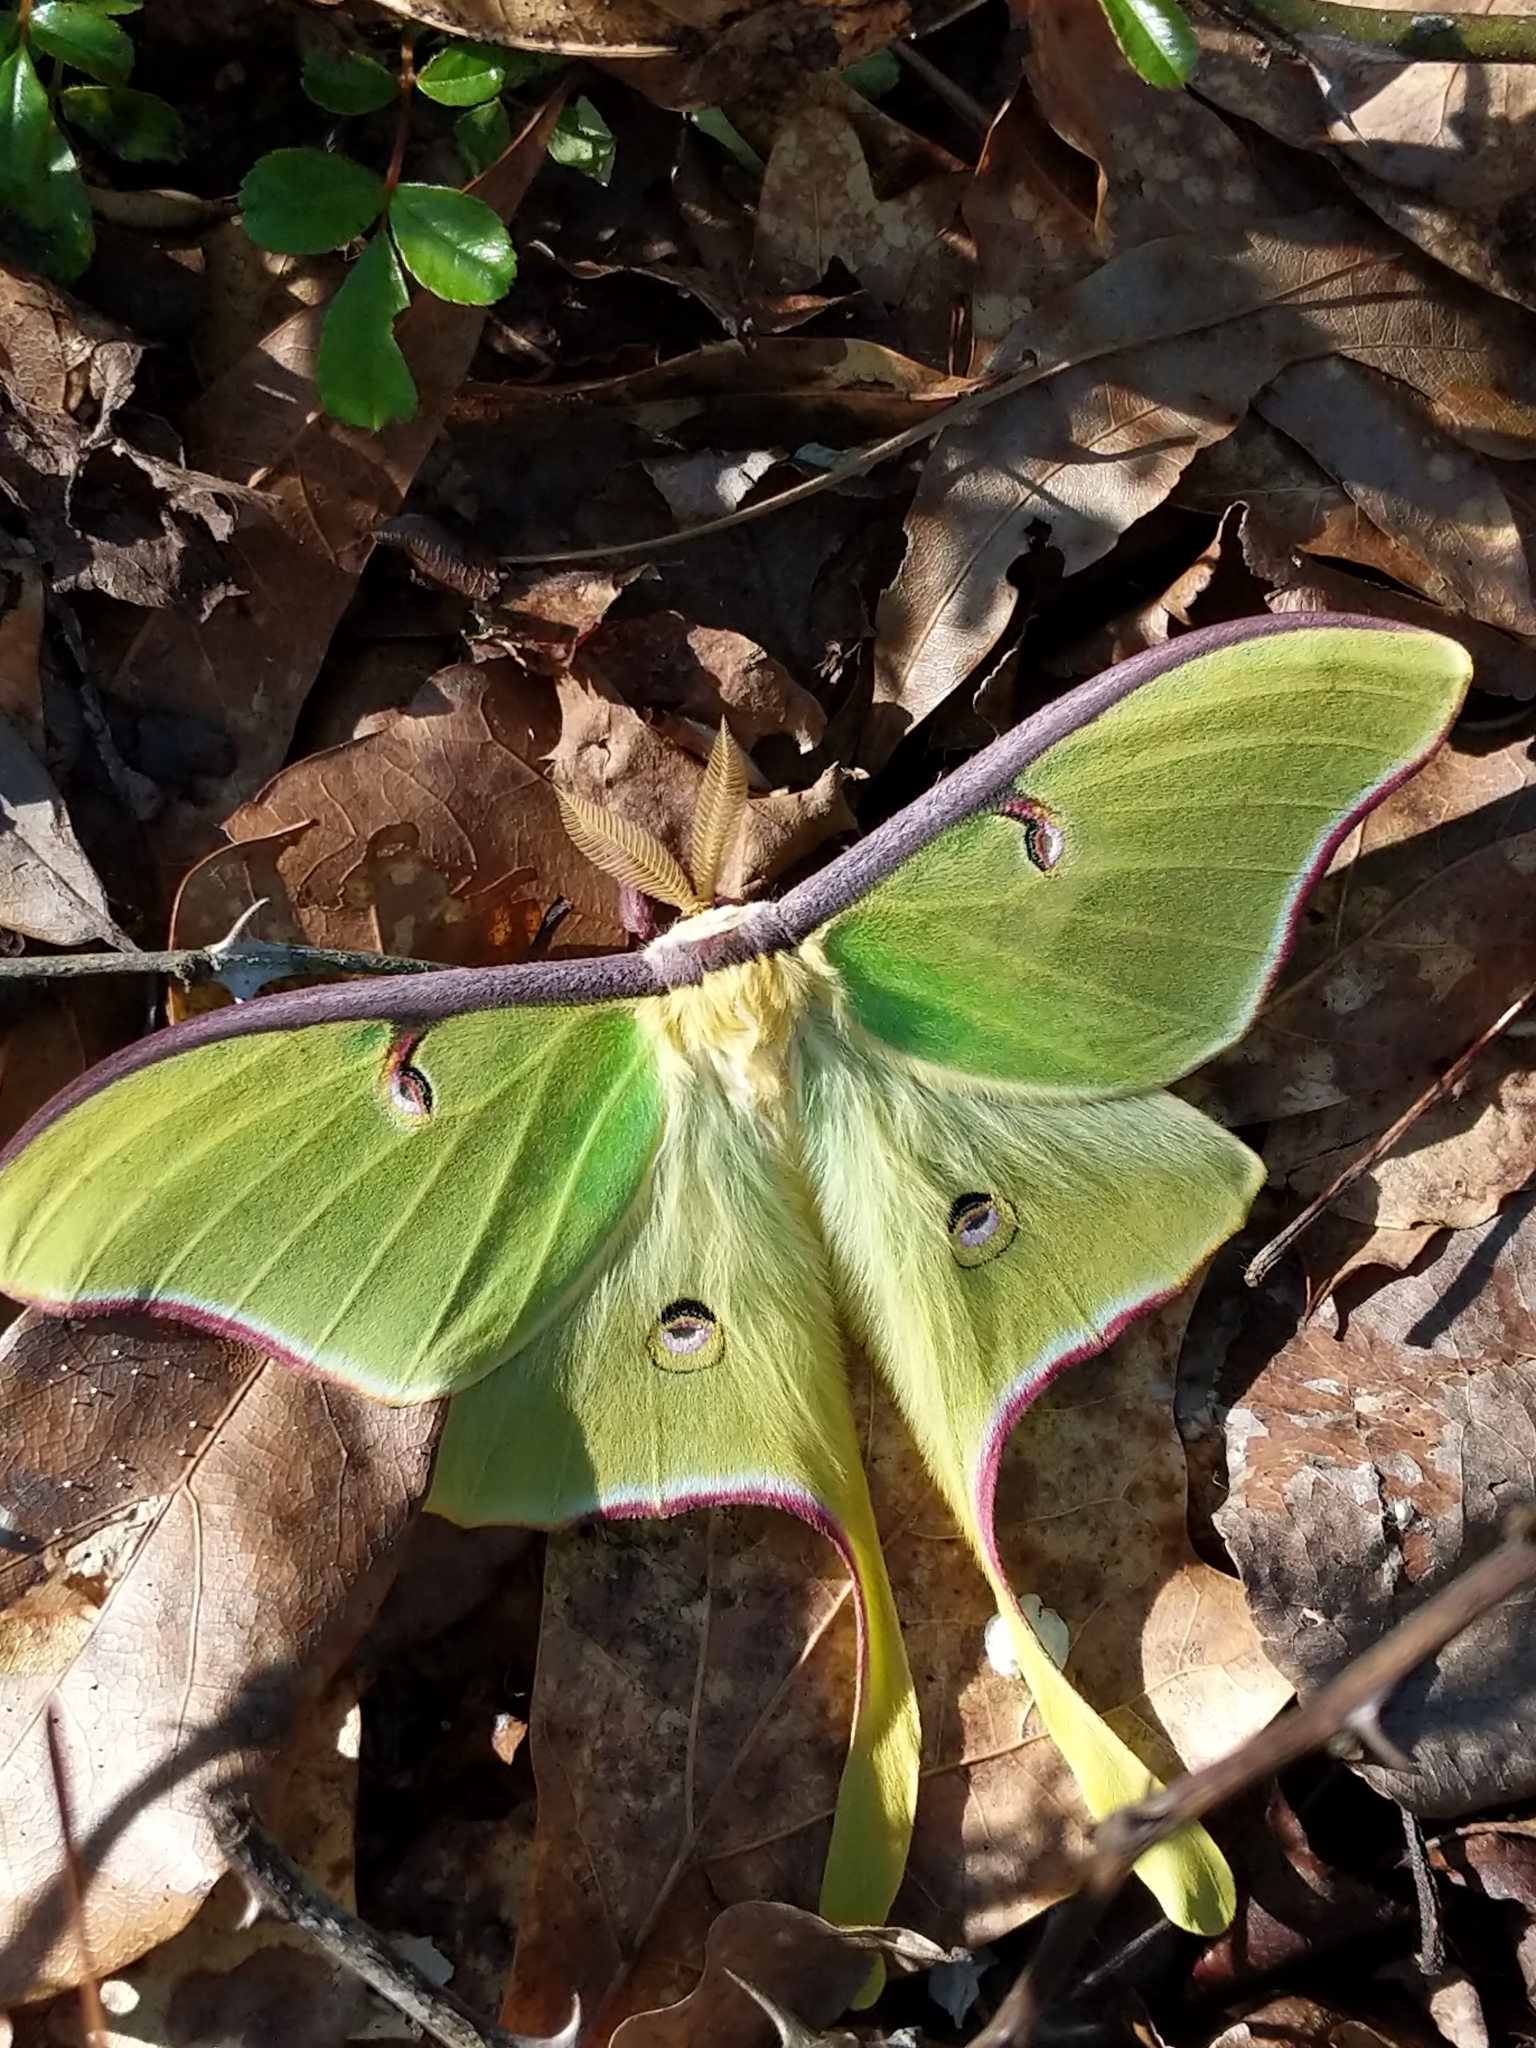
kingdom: Animalia
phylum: Arthropoda
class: Insecta
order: Lepidoptera
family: Saturniidae
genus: Actias
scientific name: Actias luna
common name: Luna moth
